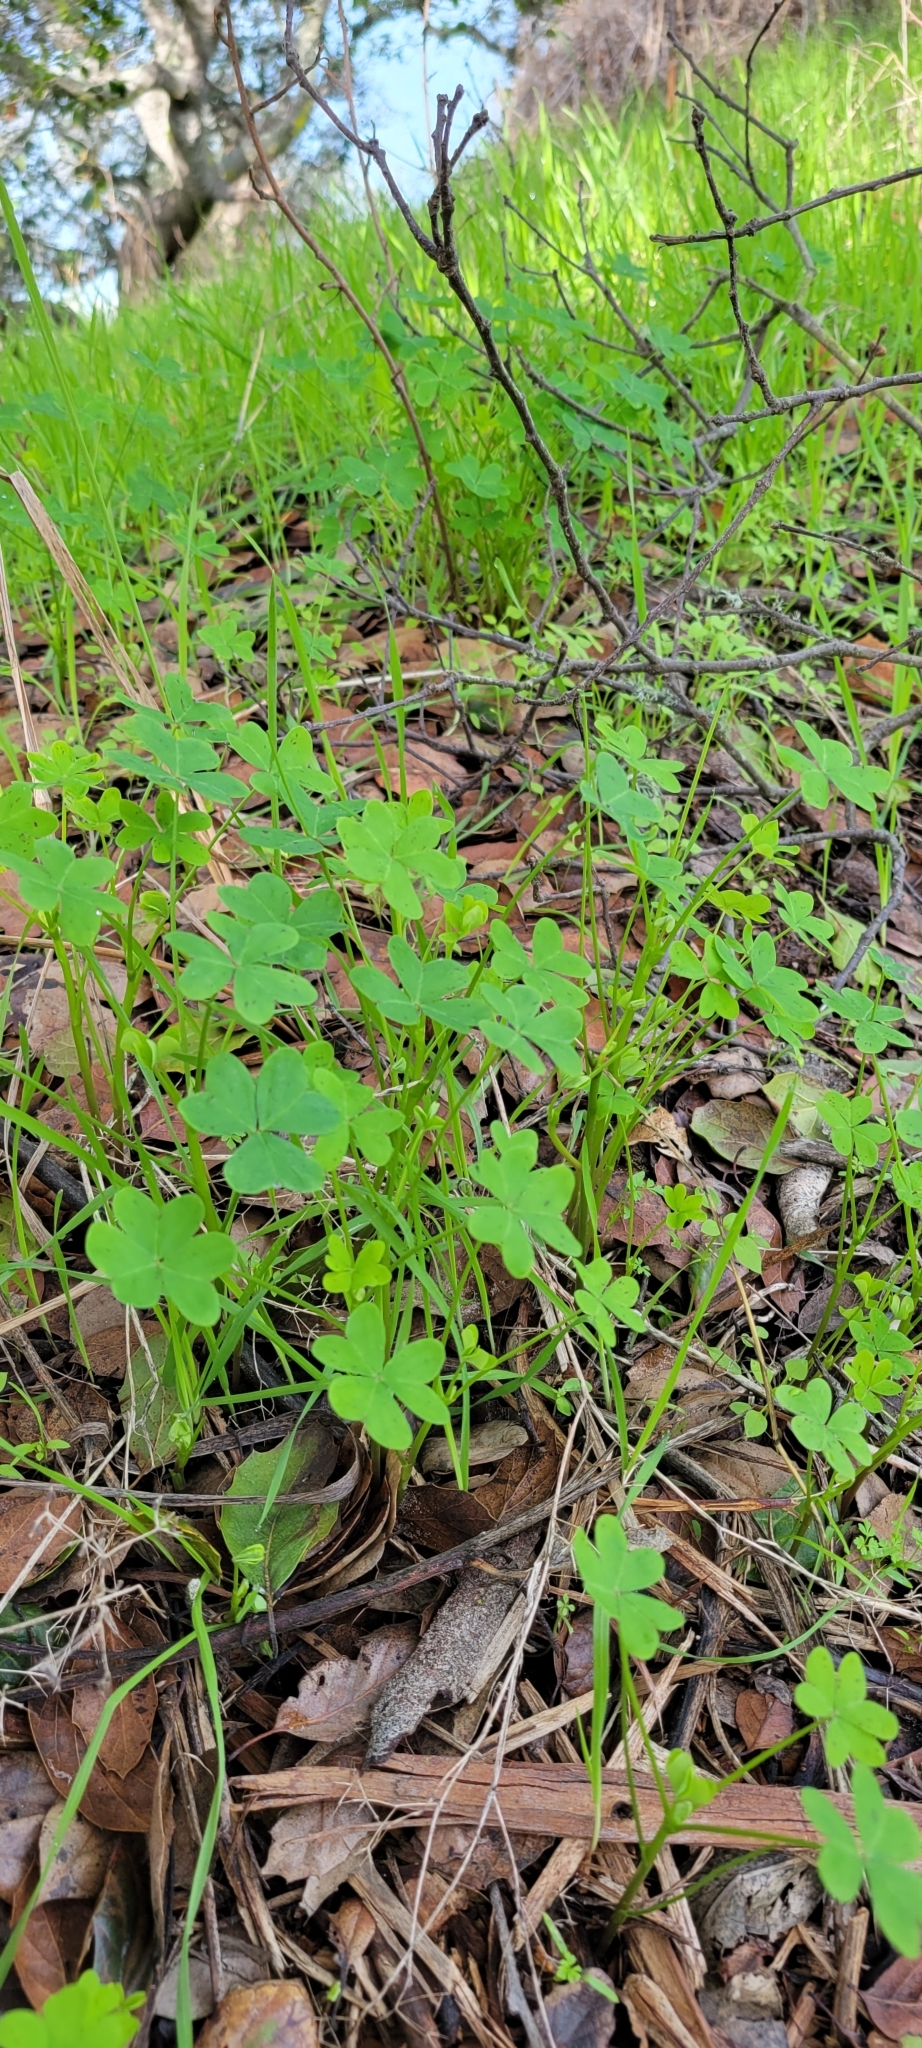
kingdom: Plantae
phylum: Tracheophyta
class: Magnoliopsida
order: Oxalidales
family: Oxalidaceae
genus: Oxalis
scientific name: Oxalis pes-caprae
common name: Bermuda-buttercup
